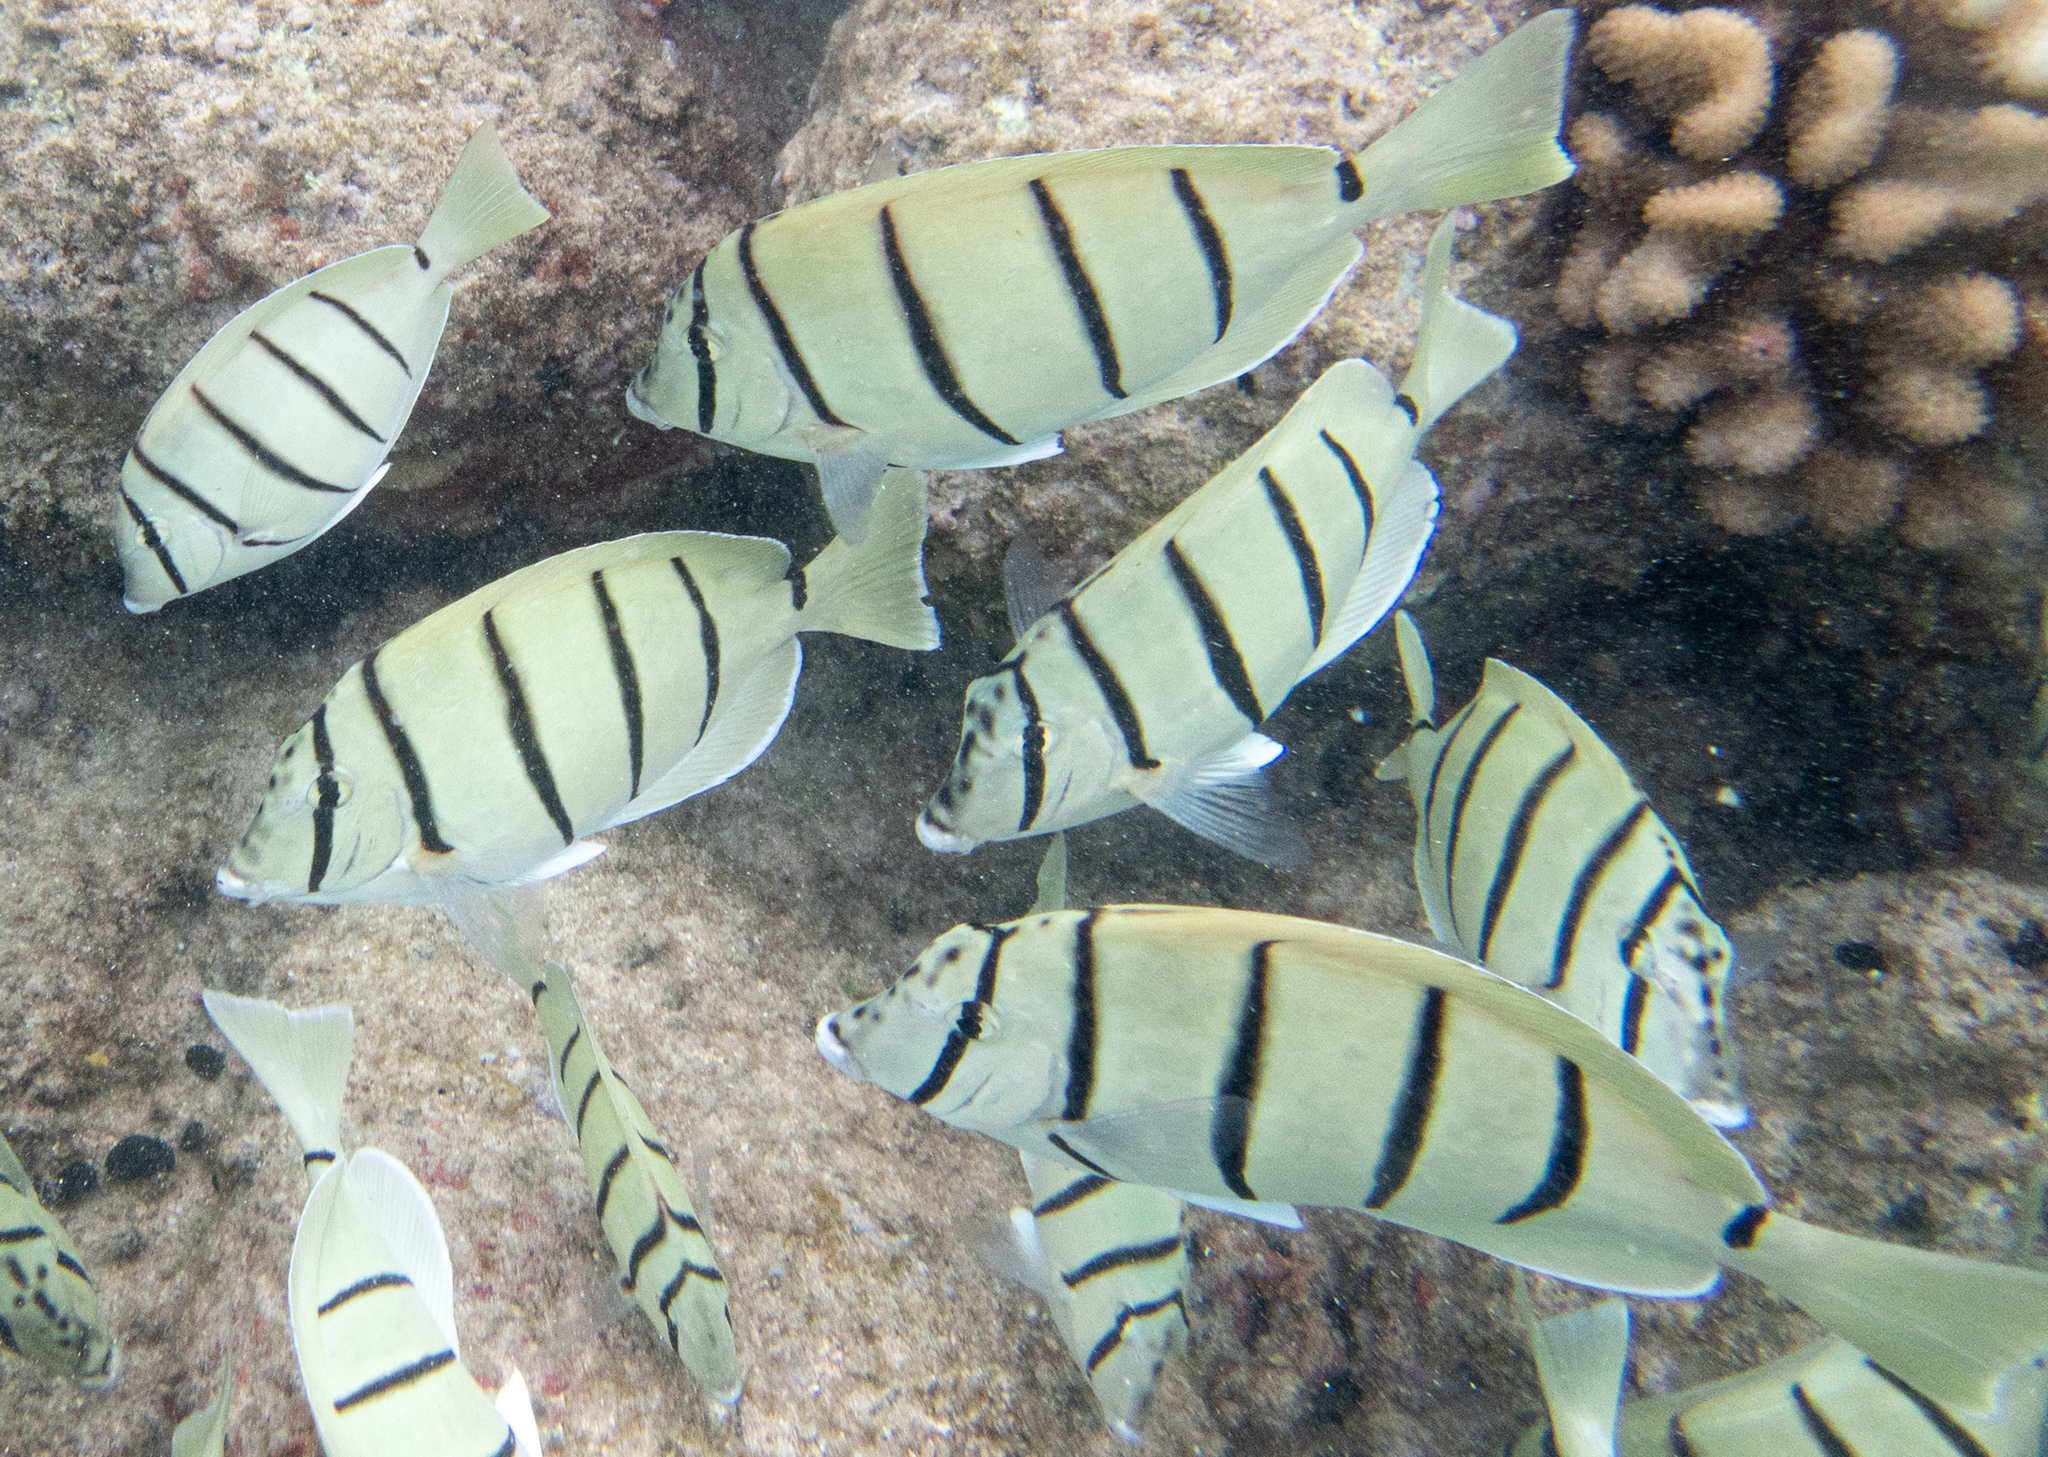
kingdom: Animalia
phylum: Chordata
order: Perciformes
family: Acanthuridae
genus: Acanthurus
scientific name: Acanthurus triostegus
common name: Convict surgeonfish
